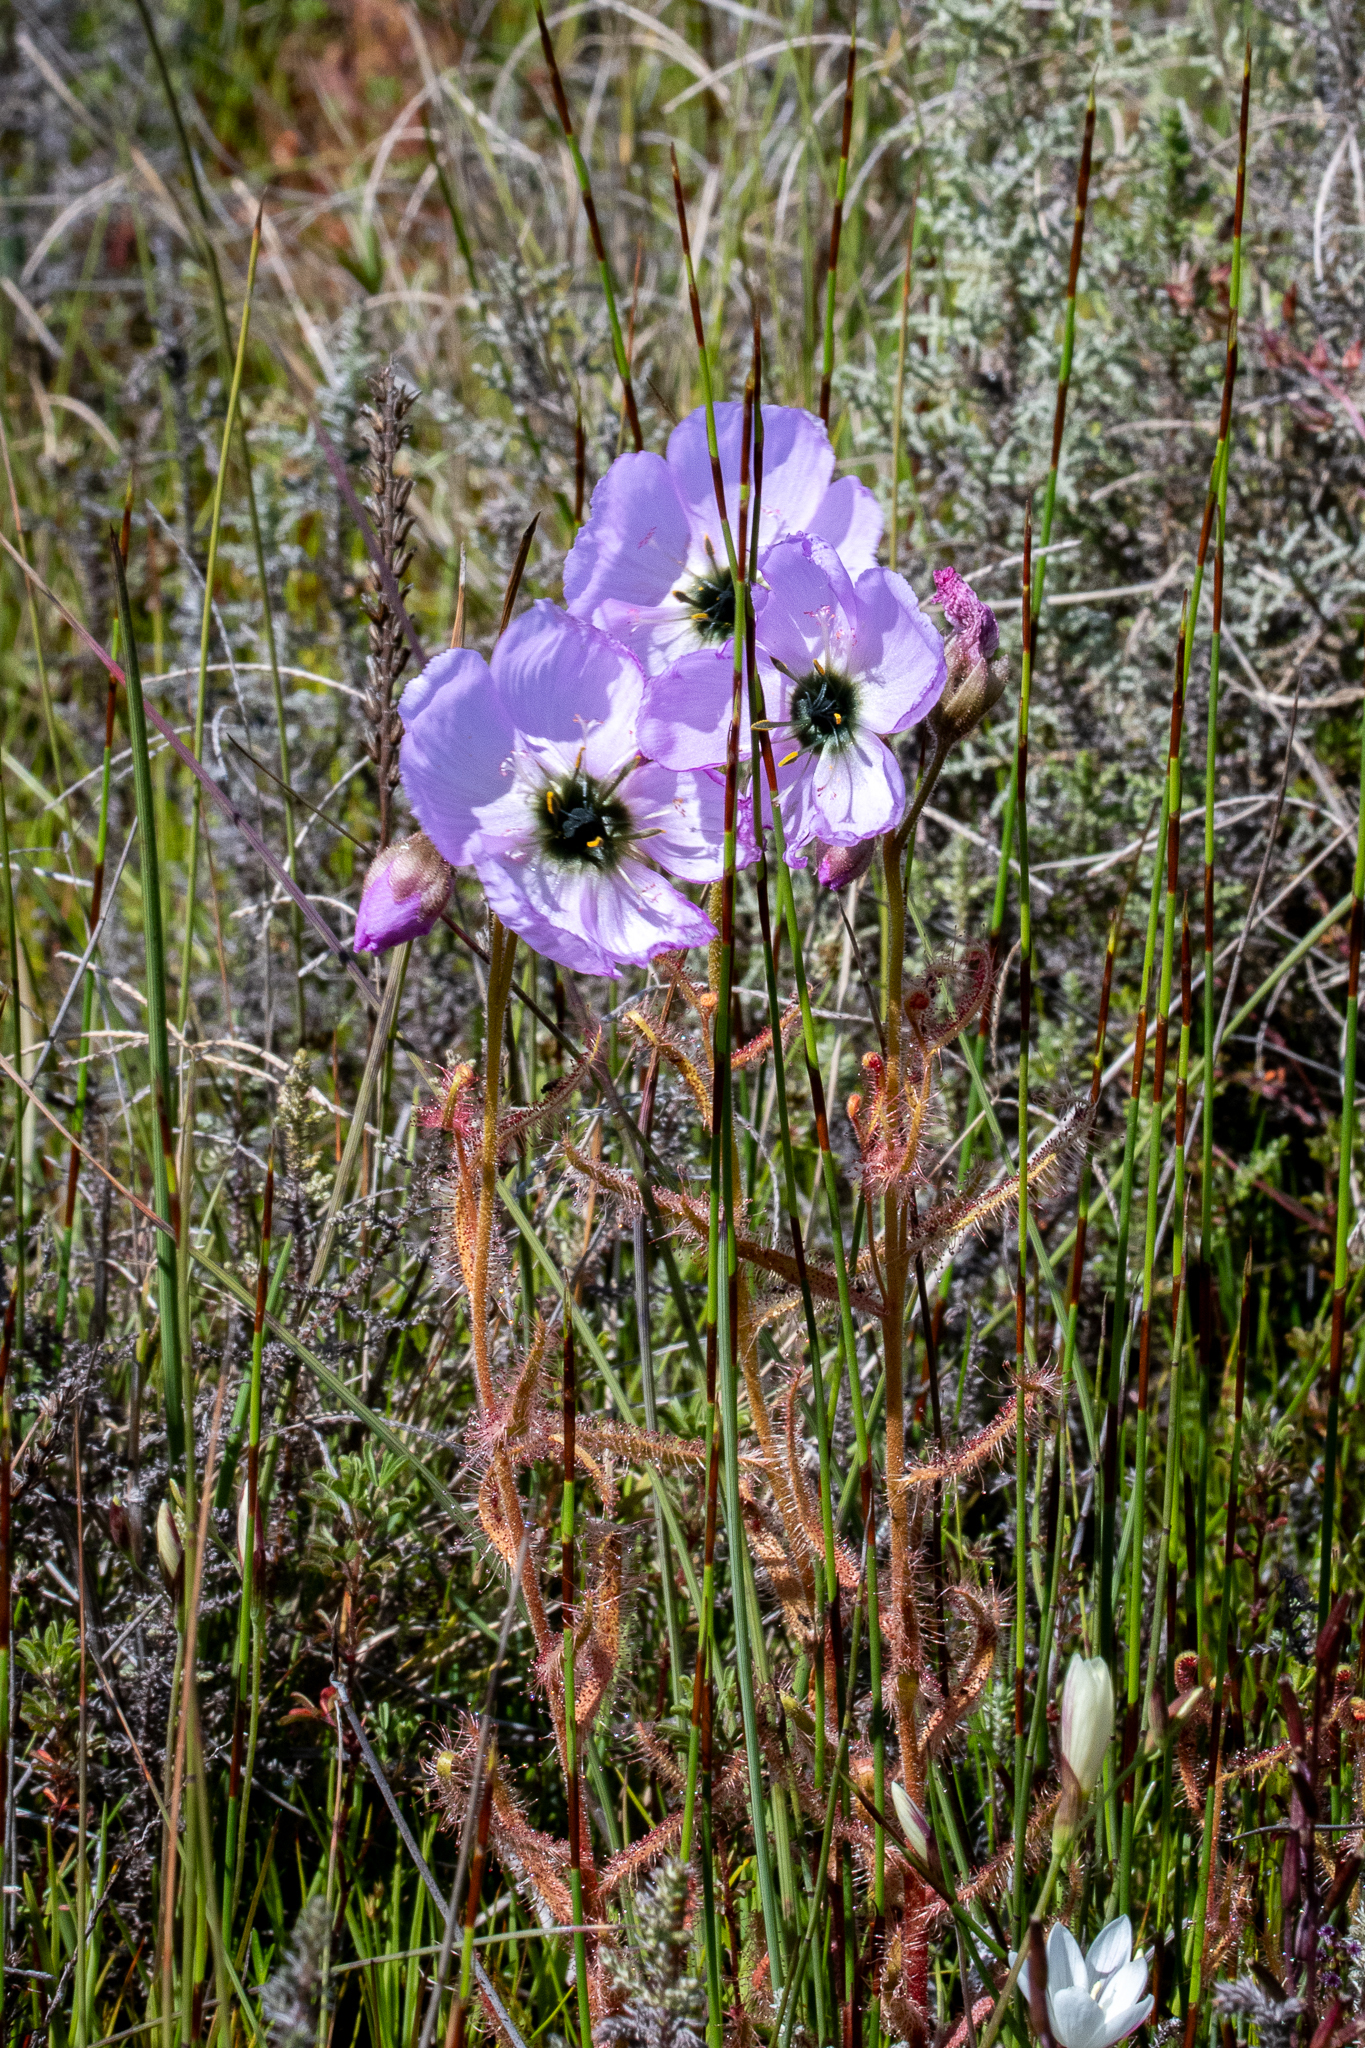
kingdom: Plantae
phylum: Tracheophyta
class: Magnoliopsida
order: Caryophyllales
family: Droseraceae
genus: Drosera
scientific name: Drosera cistiflora
